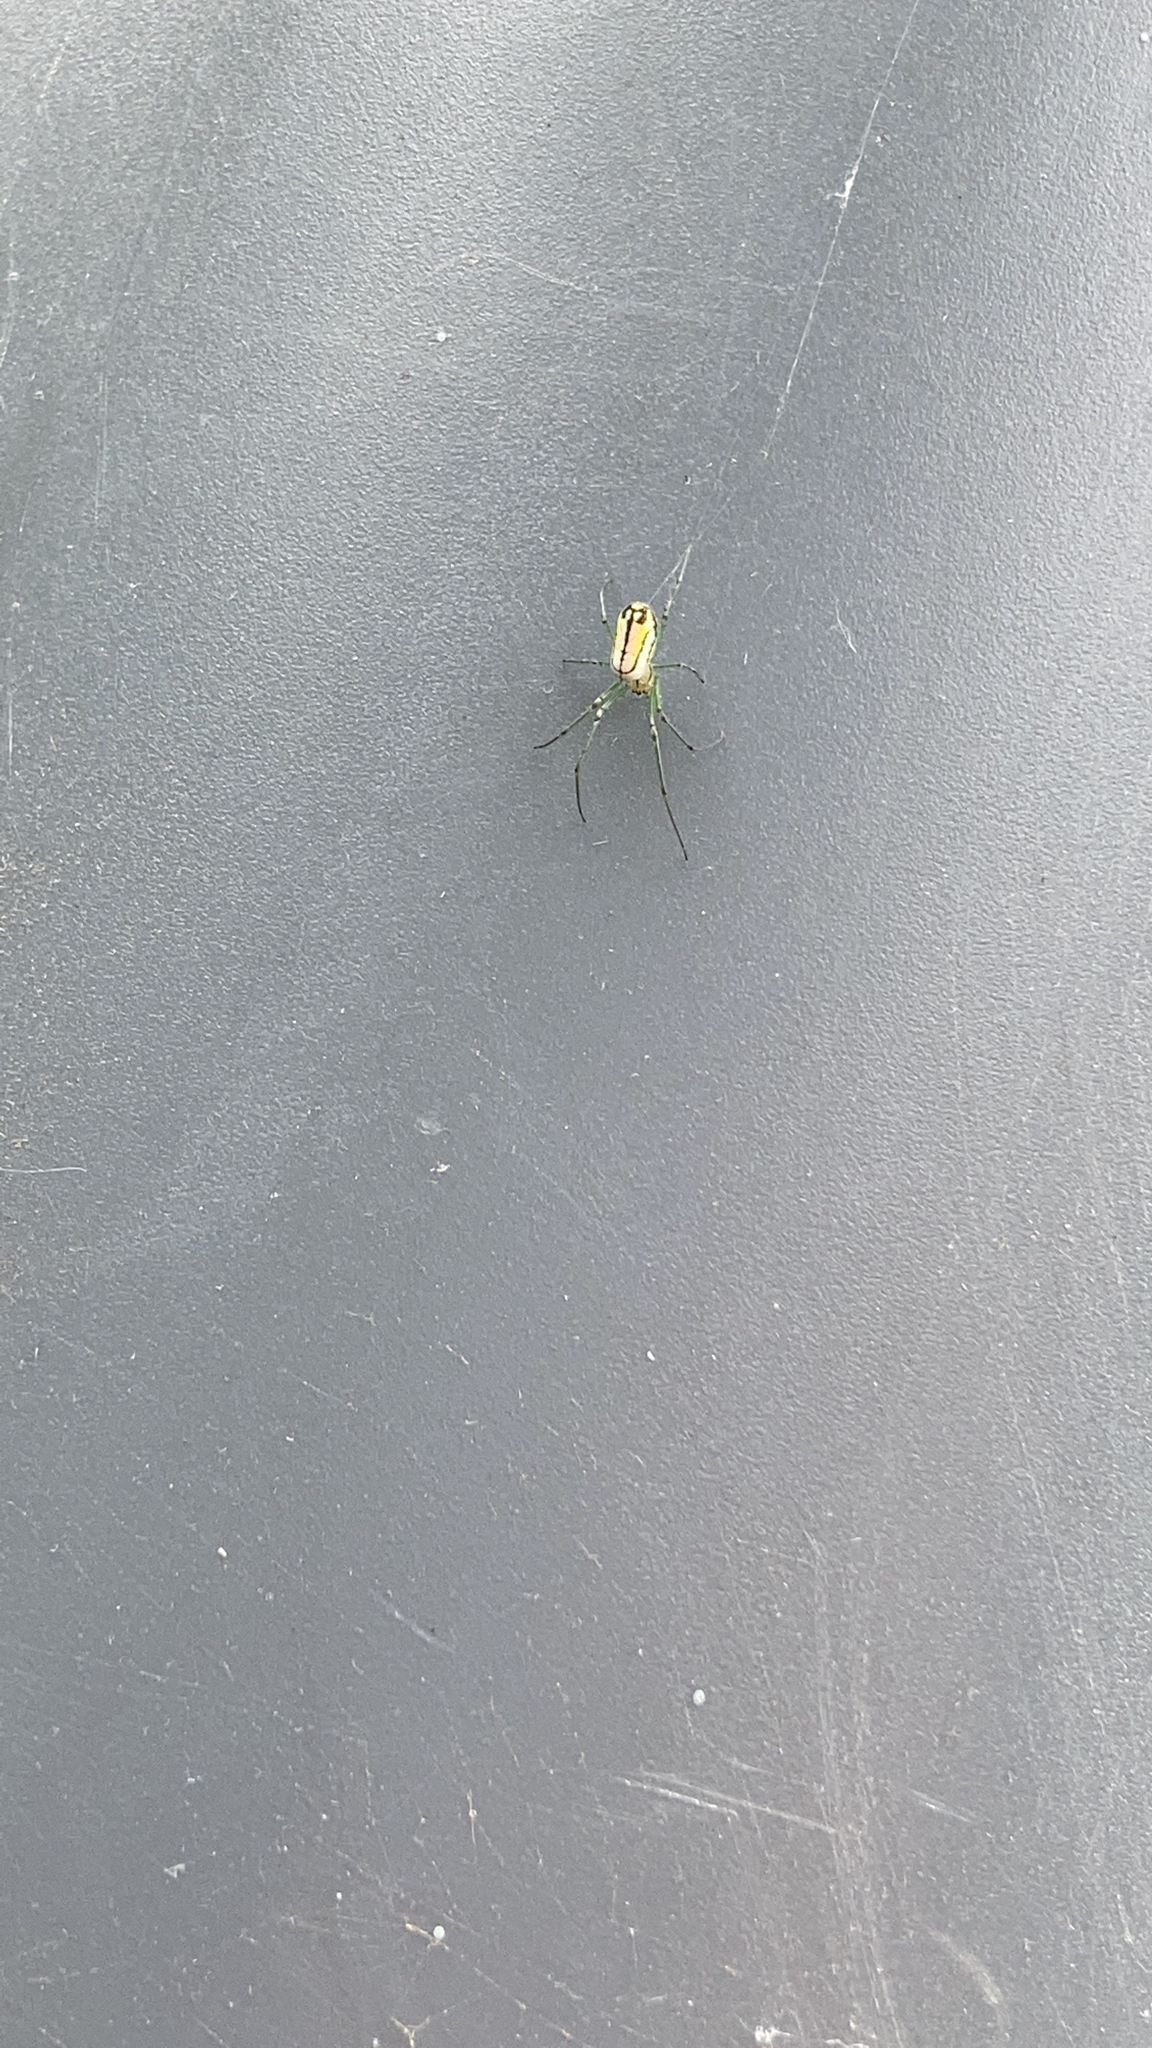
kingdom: Animalia
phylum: Arthropoda
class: Arachnida
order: Araneae
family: Tetragnathidae
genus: Leucauge
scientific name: Leucauge venusta
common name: Longjawed orb weavers
